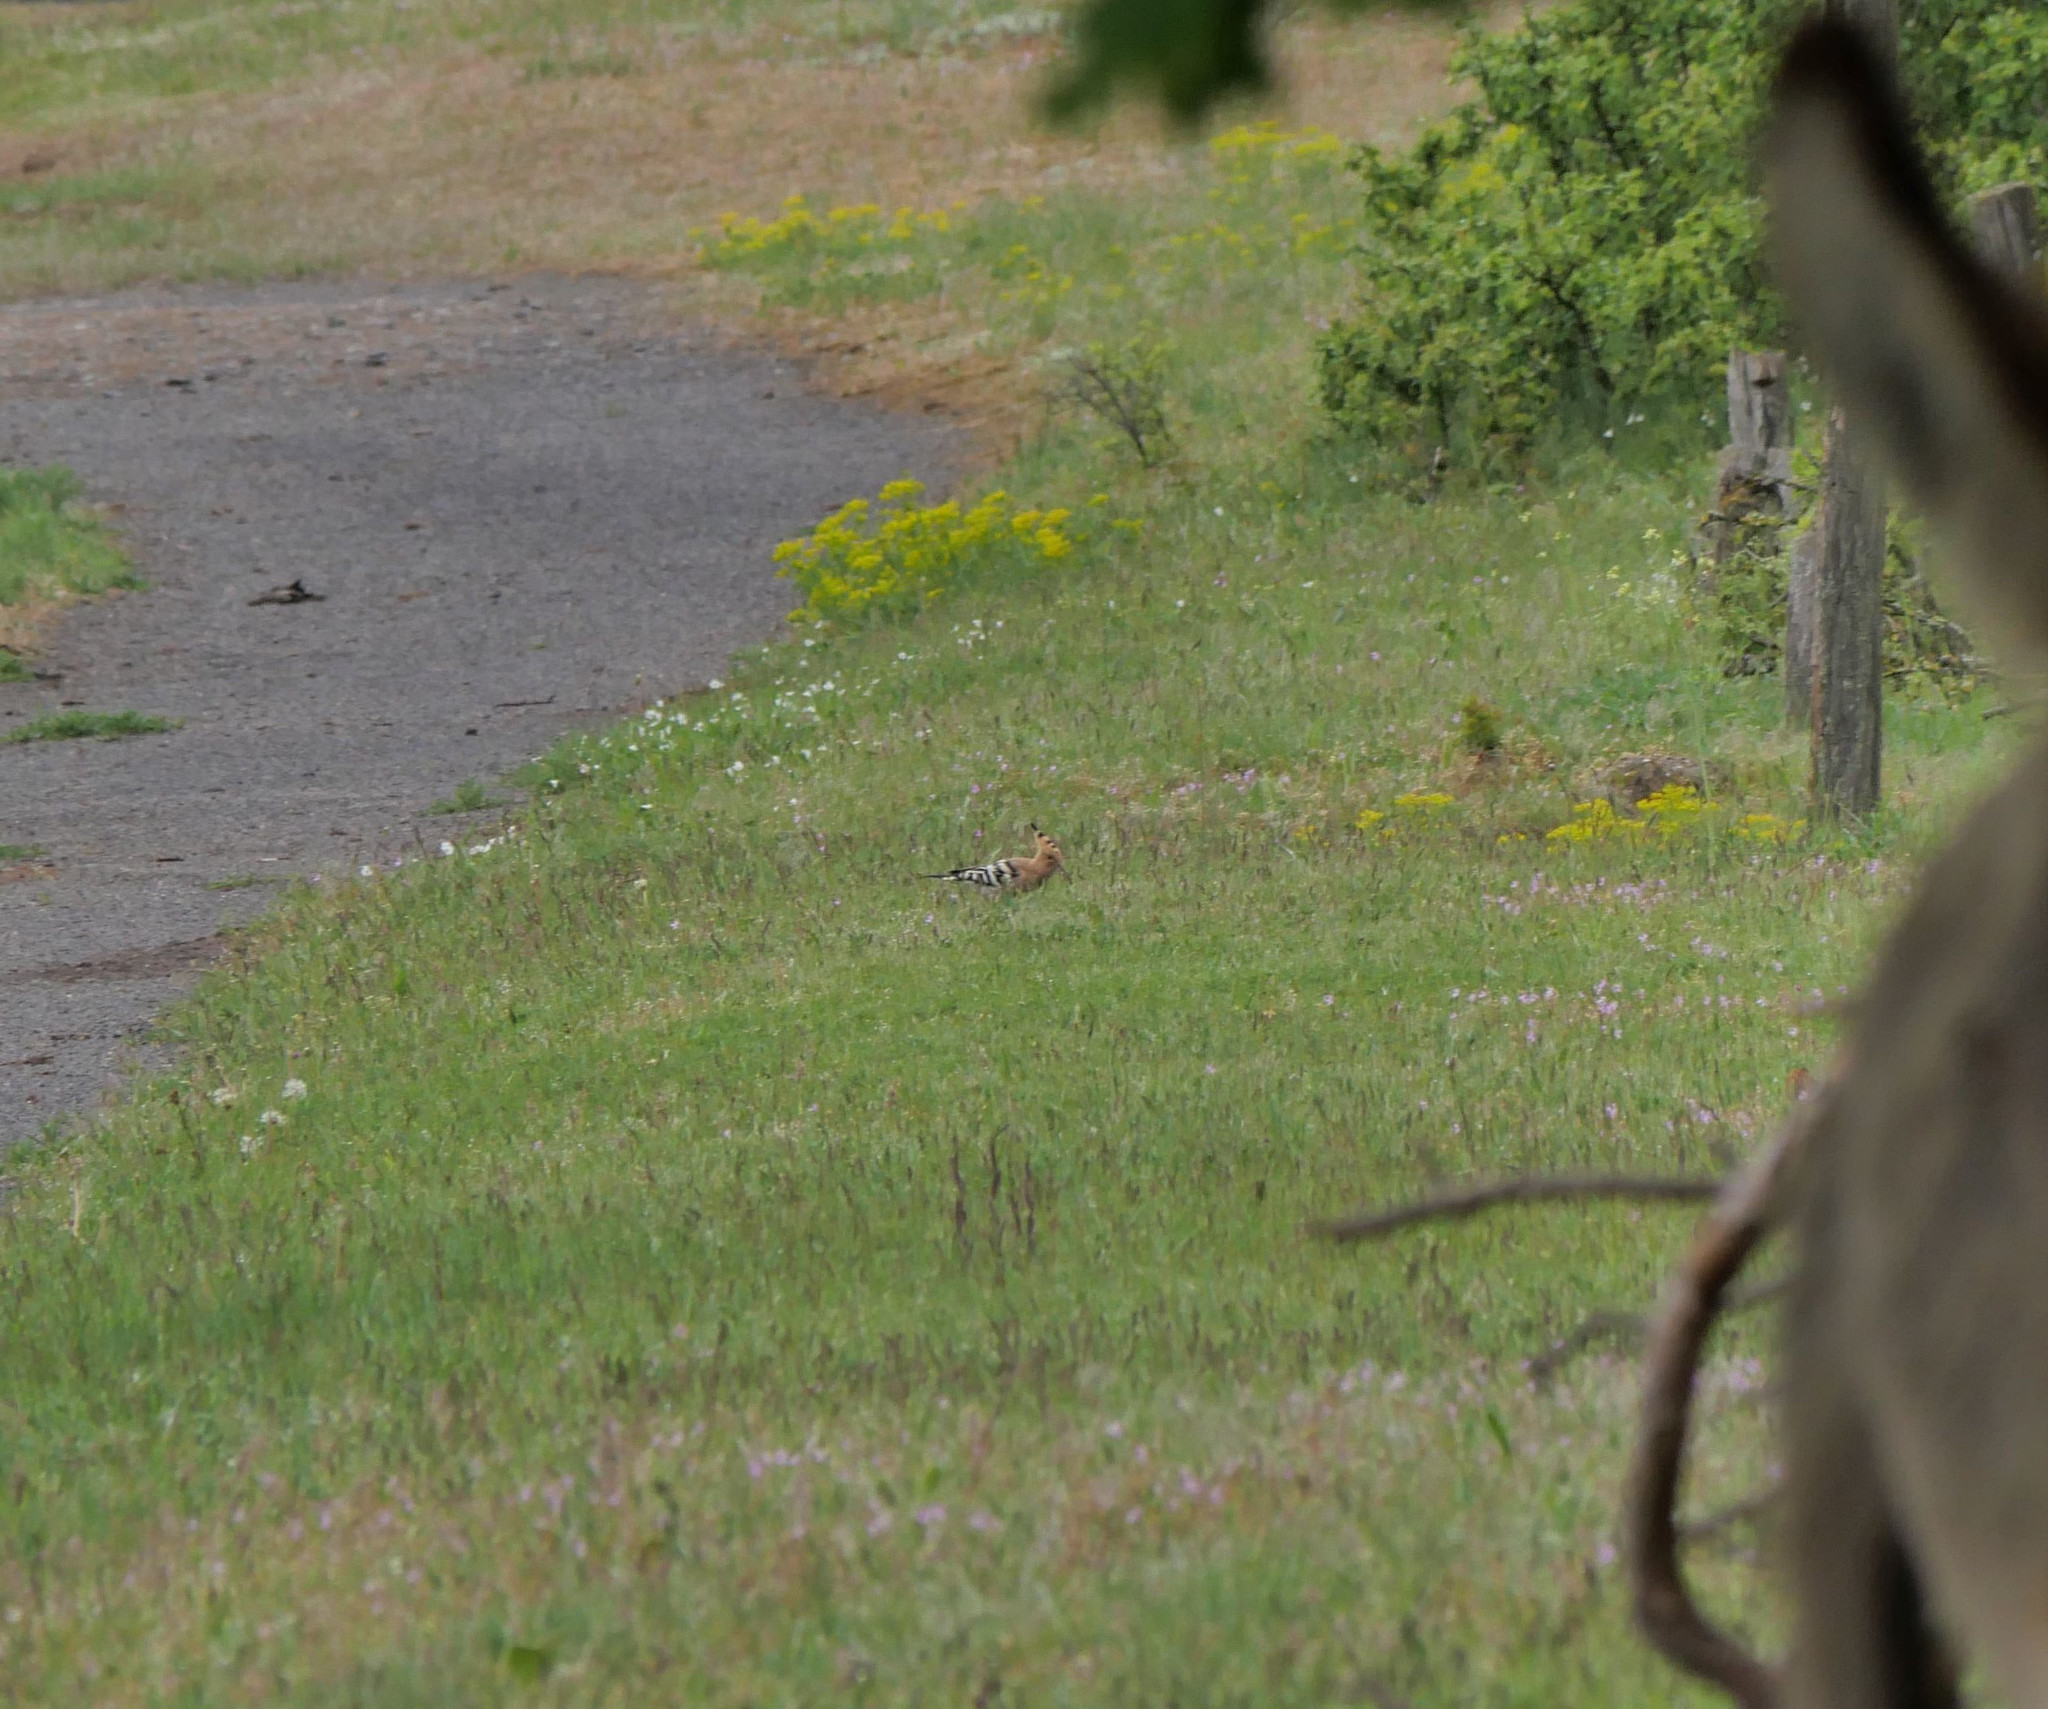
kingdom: Animalia
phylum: Chordata
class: Aves
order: Bucerotiformes
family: Upupidae
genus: Upupa
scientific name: Upupa epops
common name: Eurasian hoopoe
